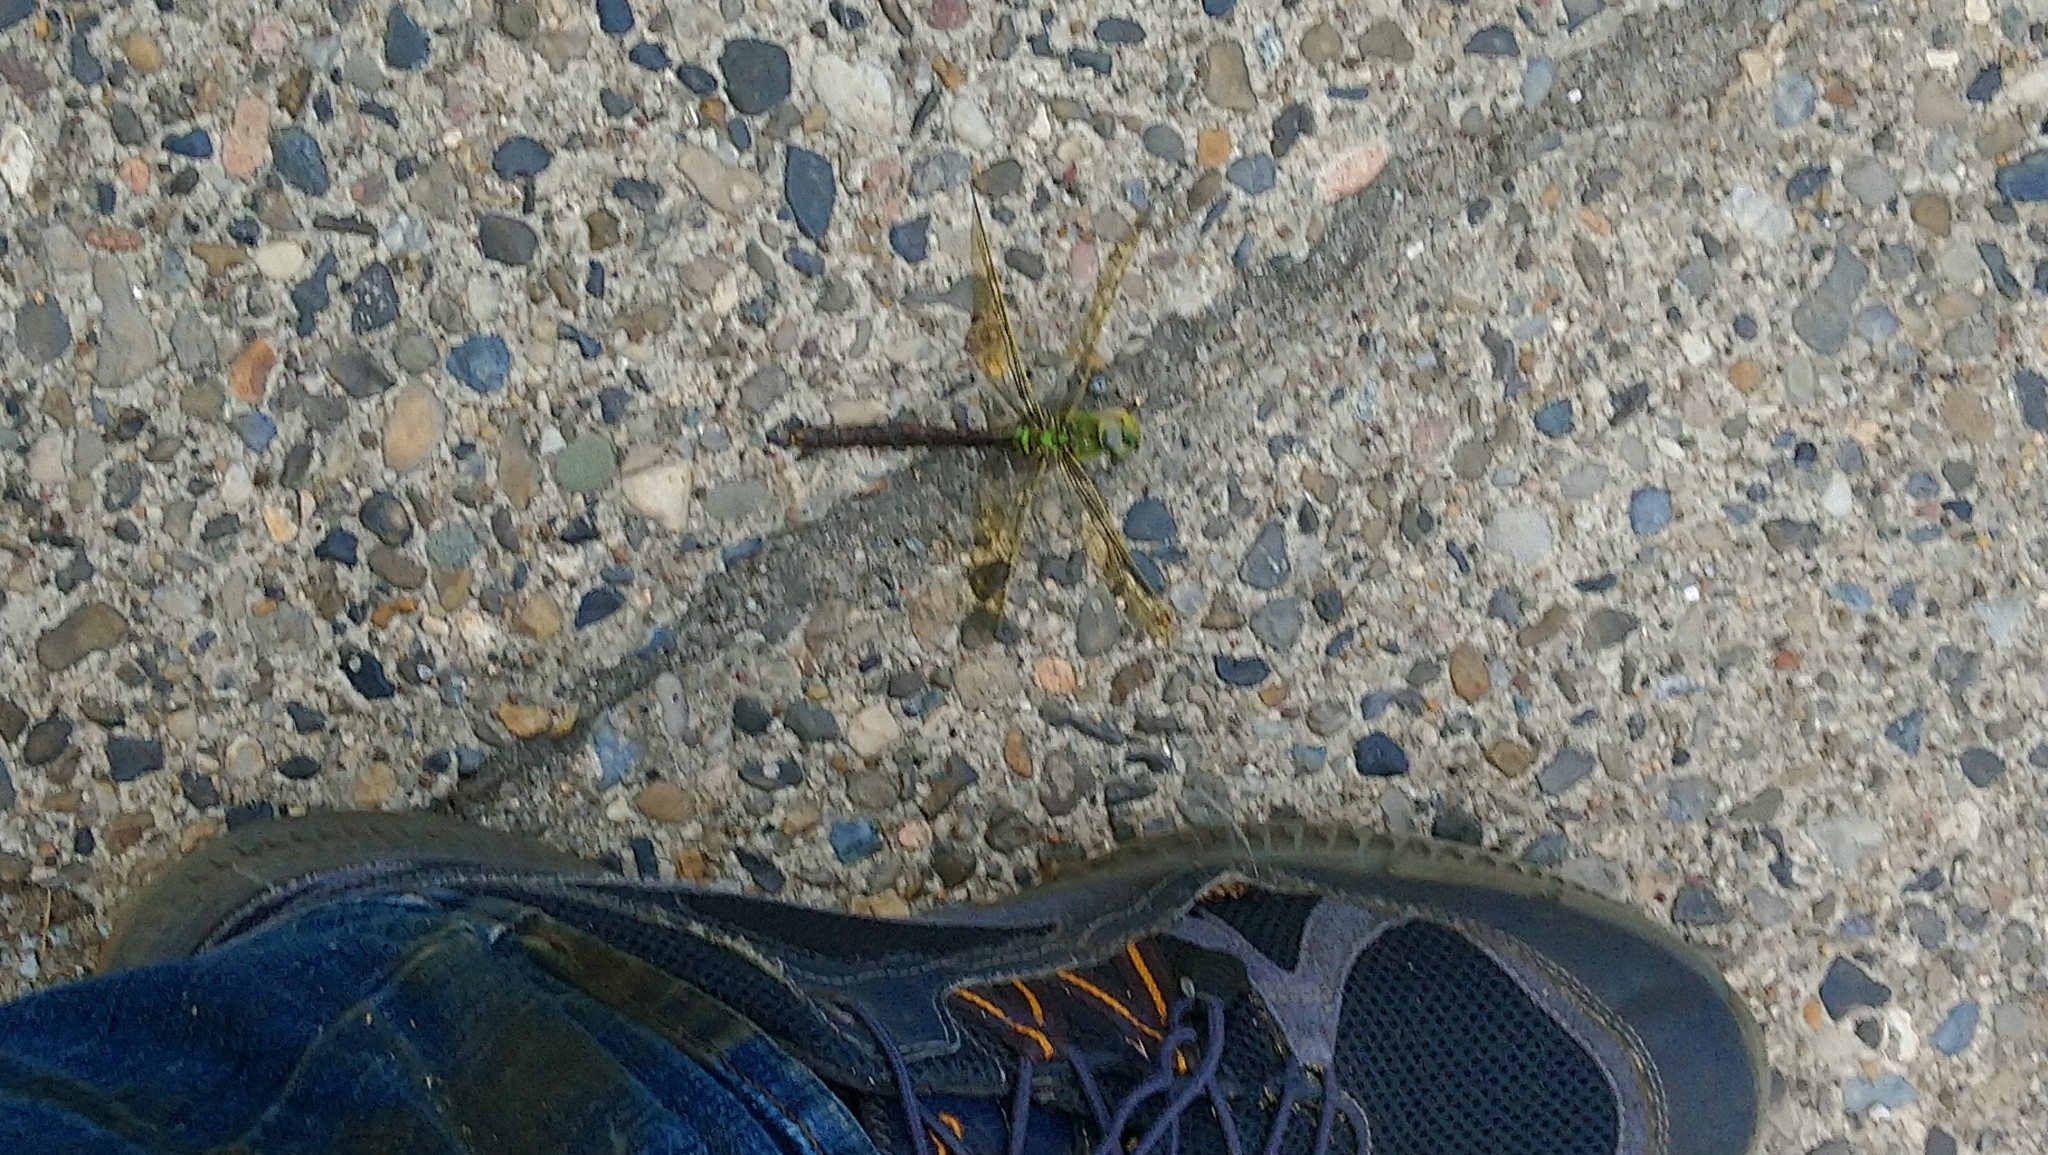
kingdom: Animalia
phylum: Arthropoda
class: Insecta
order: Odonata
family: Aeshnidae
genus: Anax
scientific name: Anax imperator
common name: Emperor dragonfly
